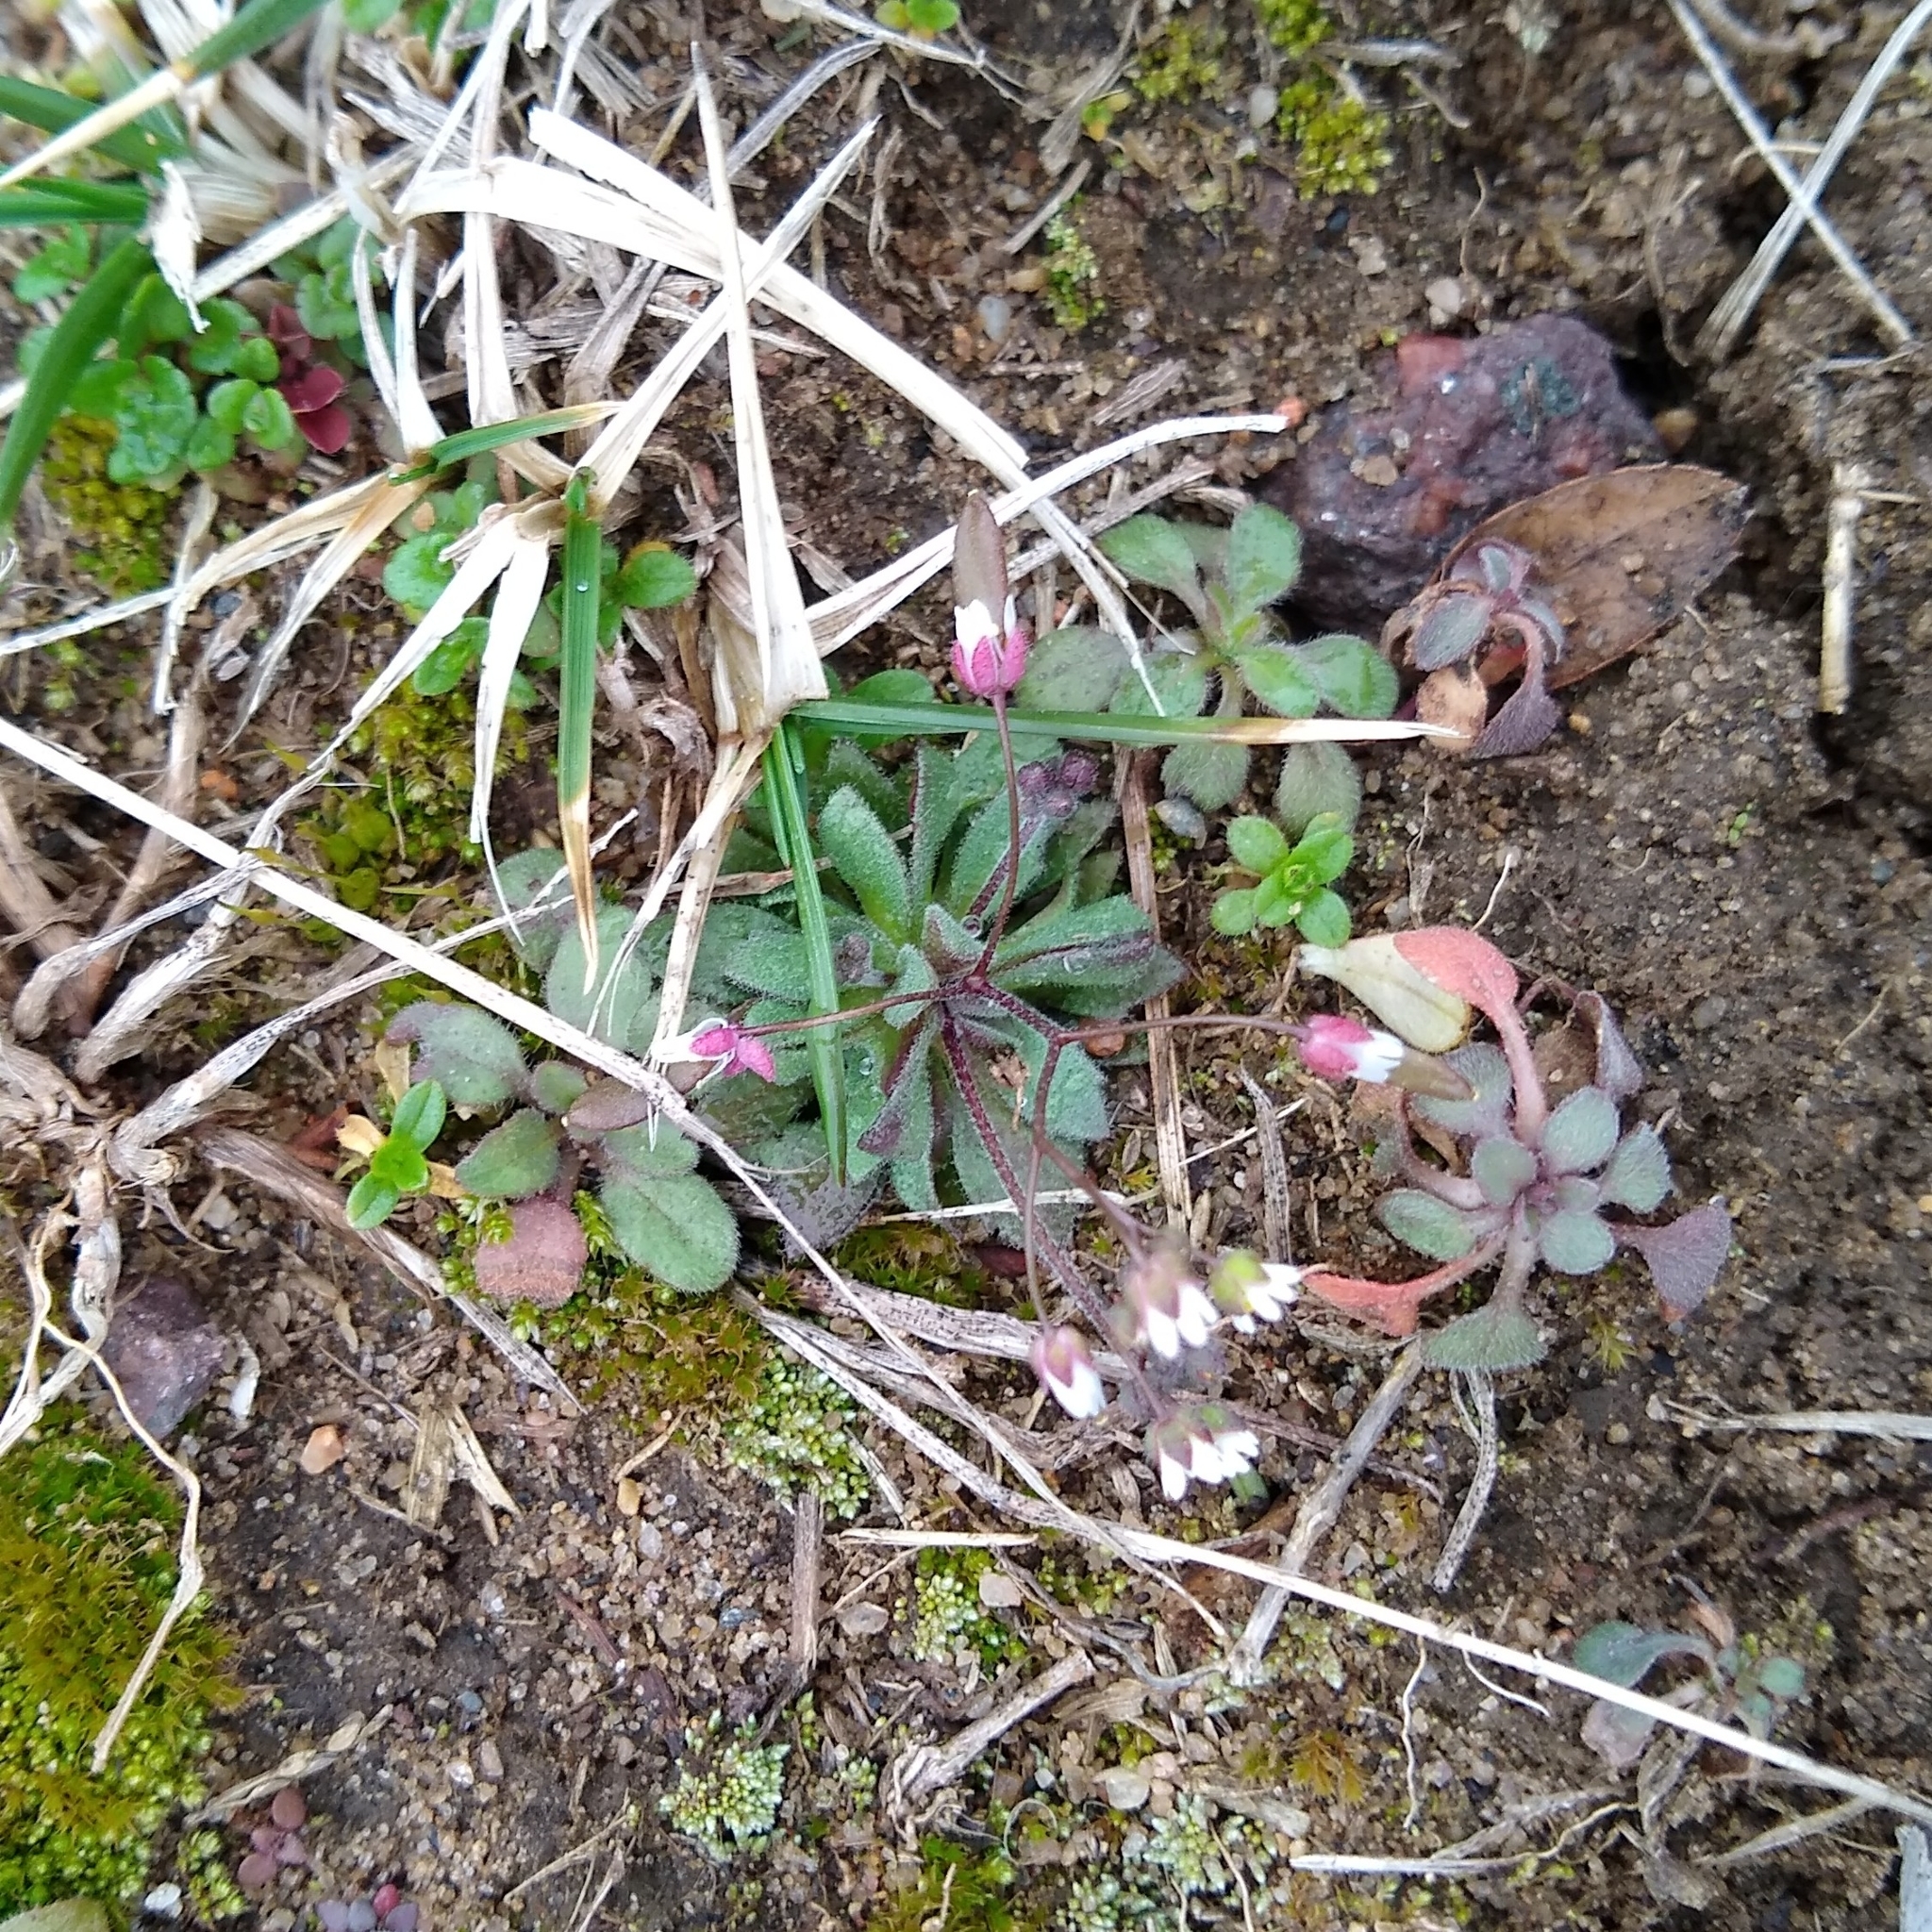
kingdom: Plantae
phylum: Tracheophyta
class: Magnoliopsida
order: Brassicales
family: Brassicaceae
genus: Draba
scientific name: Draba verna
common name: Spring draba
